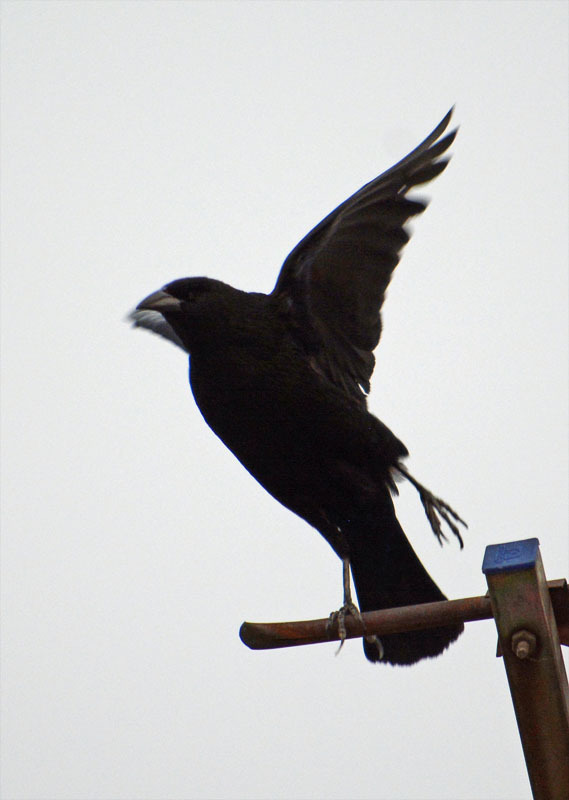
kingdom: Animalia
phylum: Chordata
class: Aves
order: Passeriformes
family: Icteridae
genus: Molothrus
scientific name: Molothrus aeneus
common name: Bronzed cowbird
